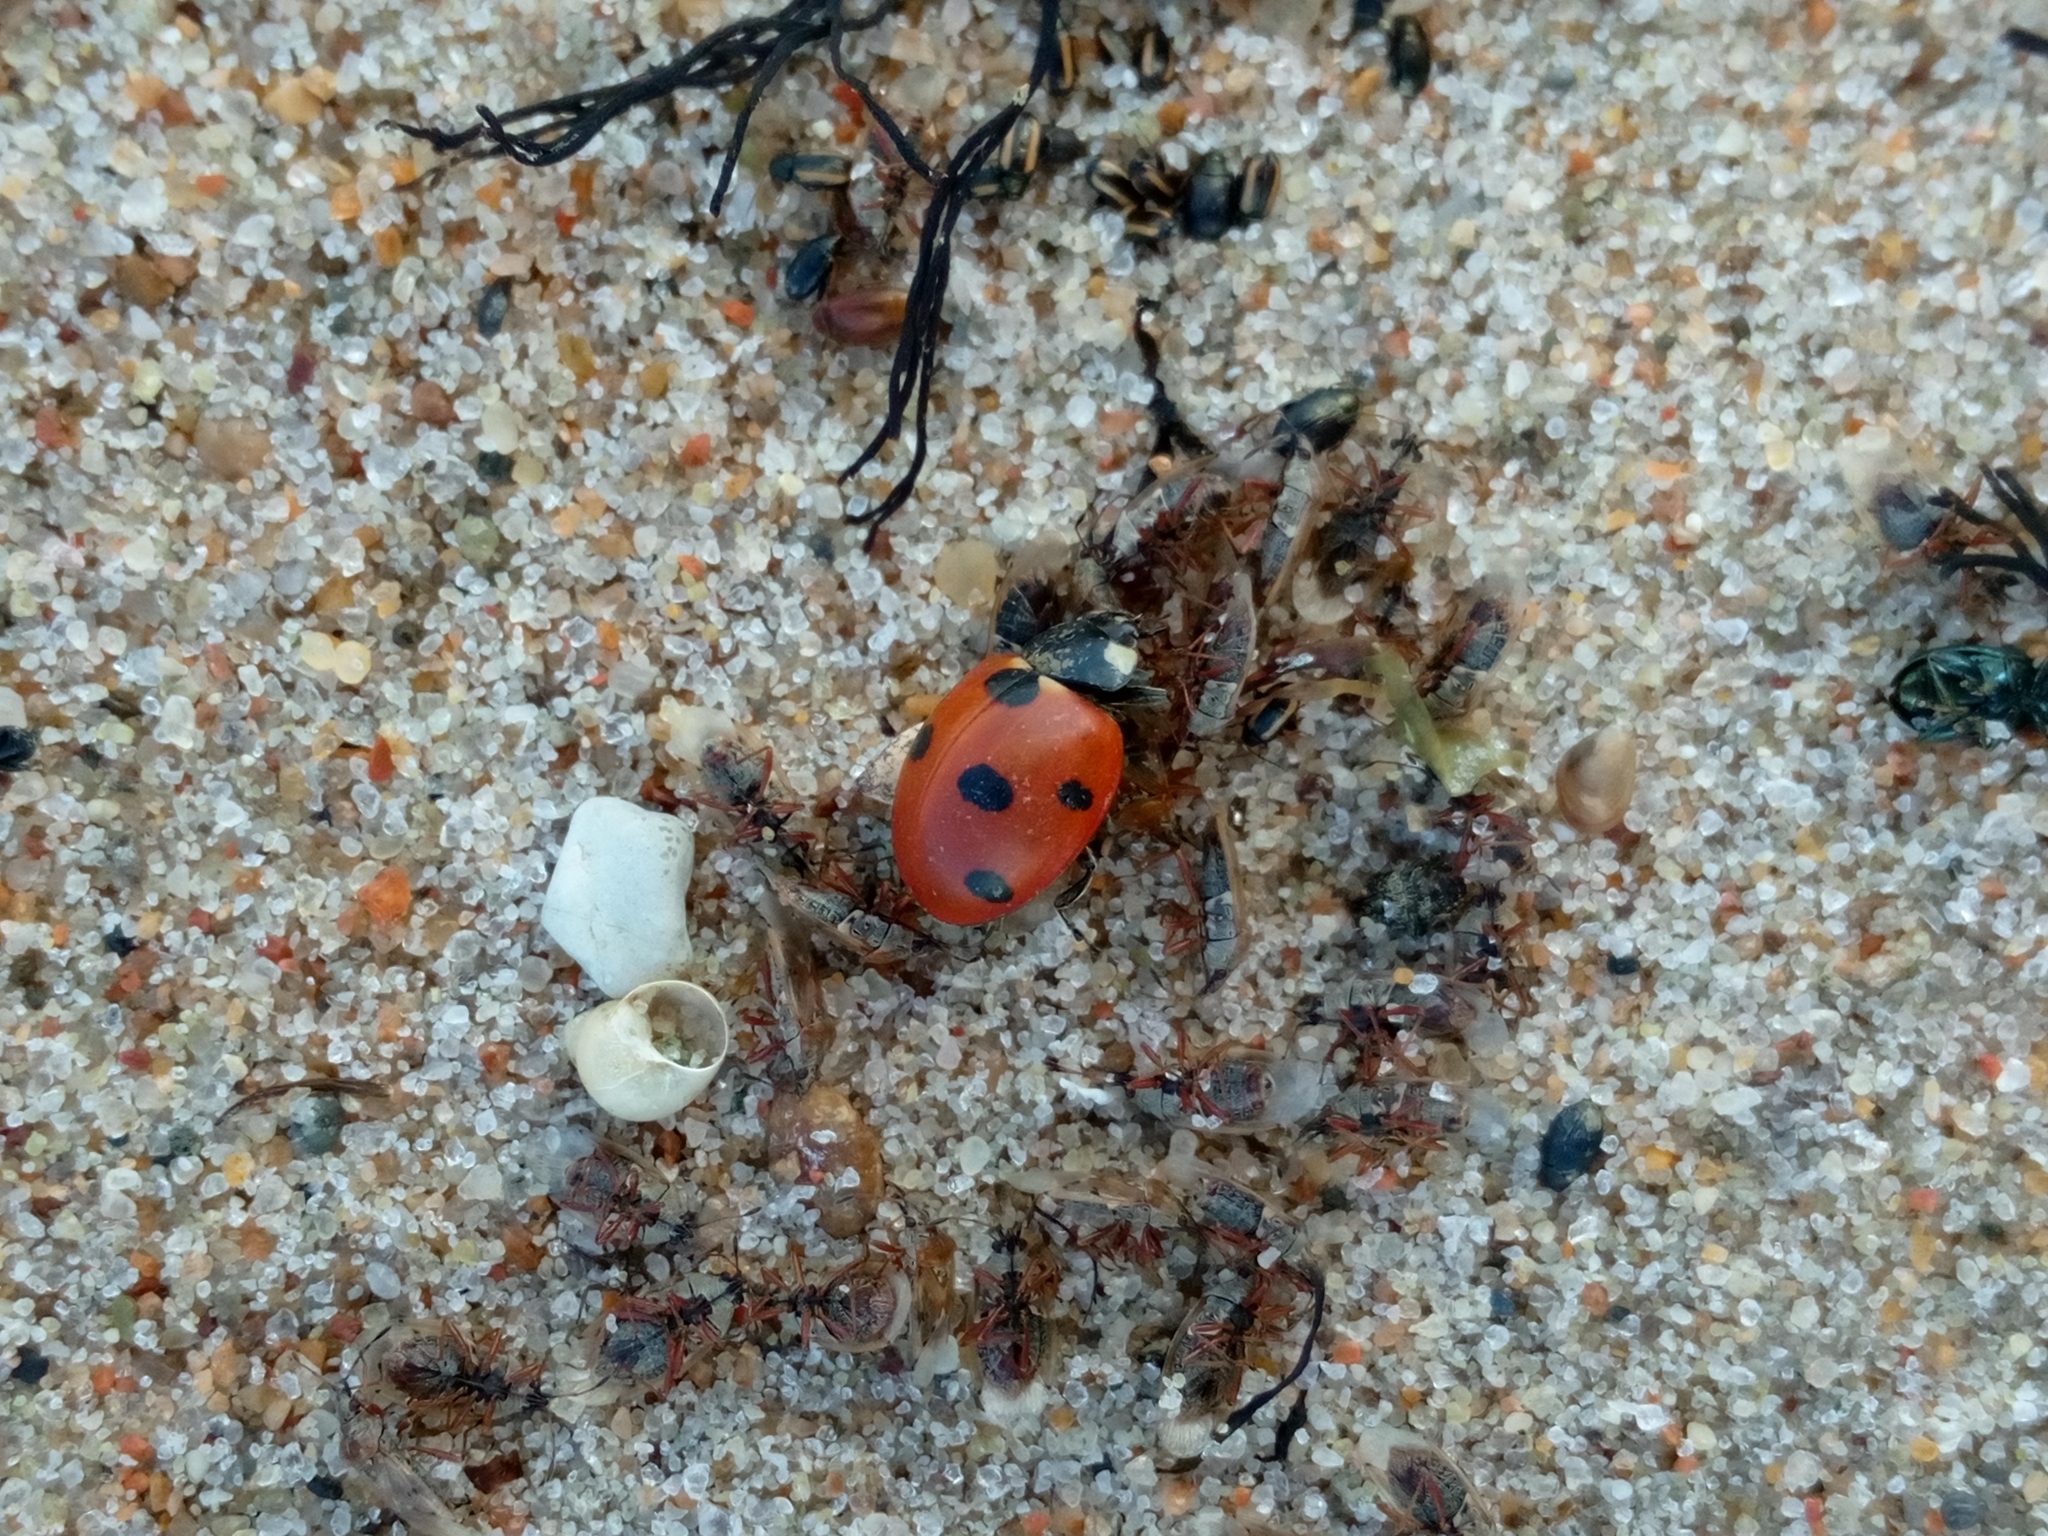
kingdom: Animalia
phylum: Arthropoda
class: Insecta
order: Coleoptera
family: Coccinellidae
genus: Coccinella
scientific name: Coccinella septempunctata
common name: Sevenspotted lady beetle
